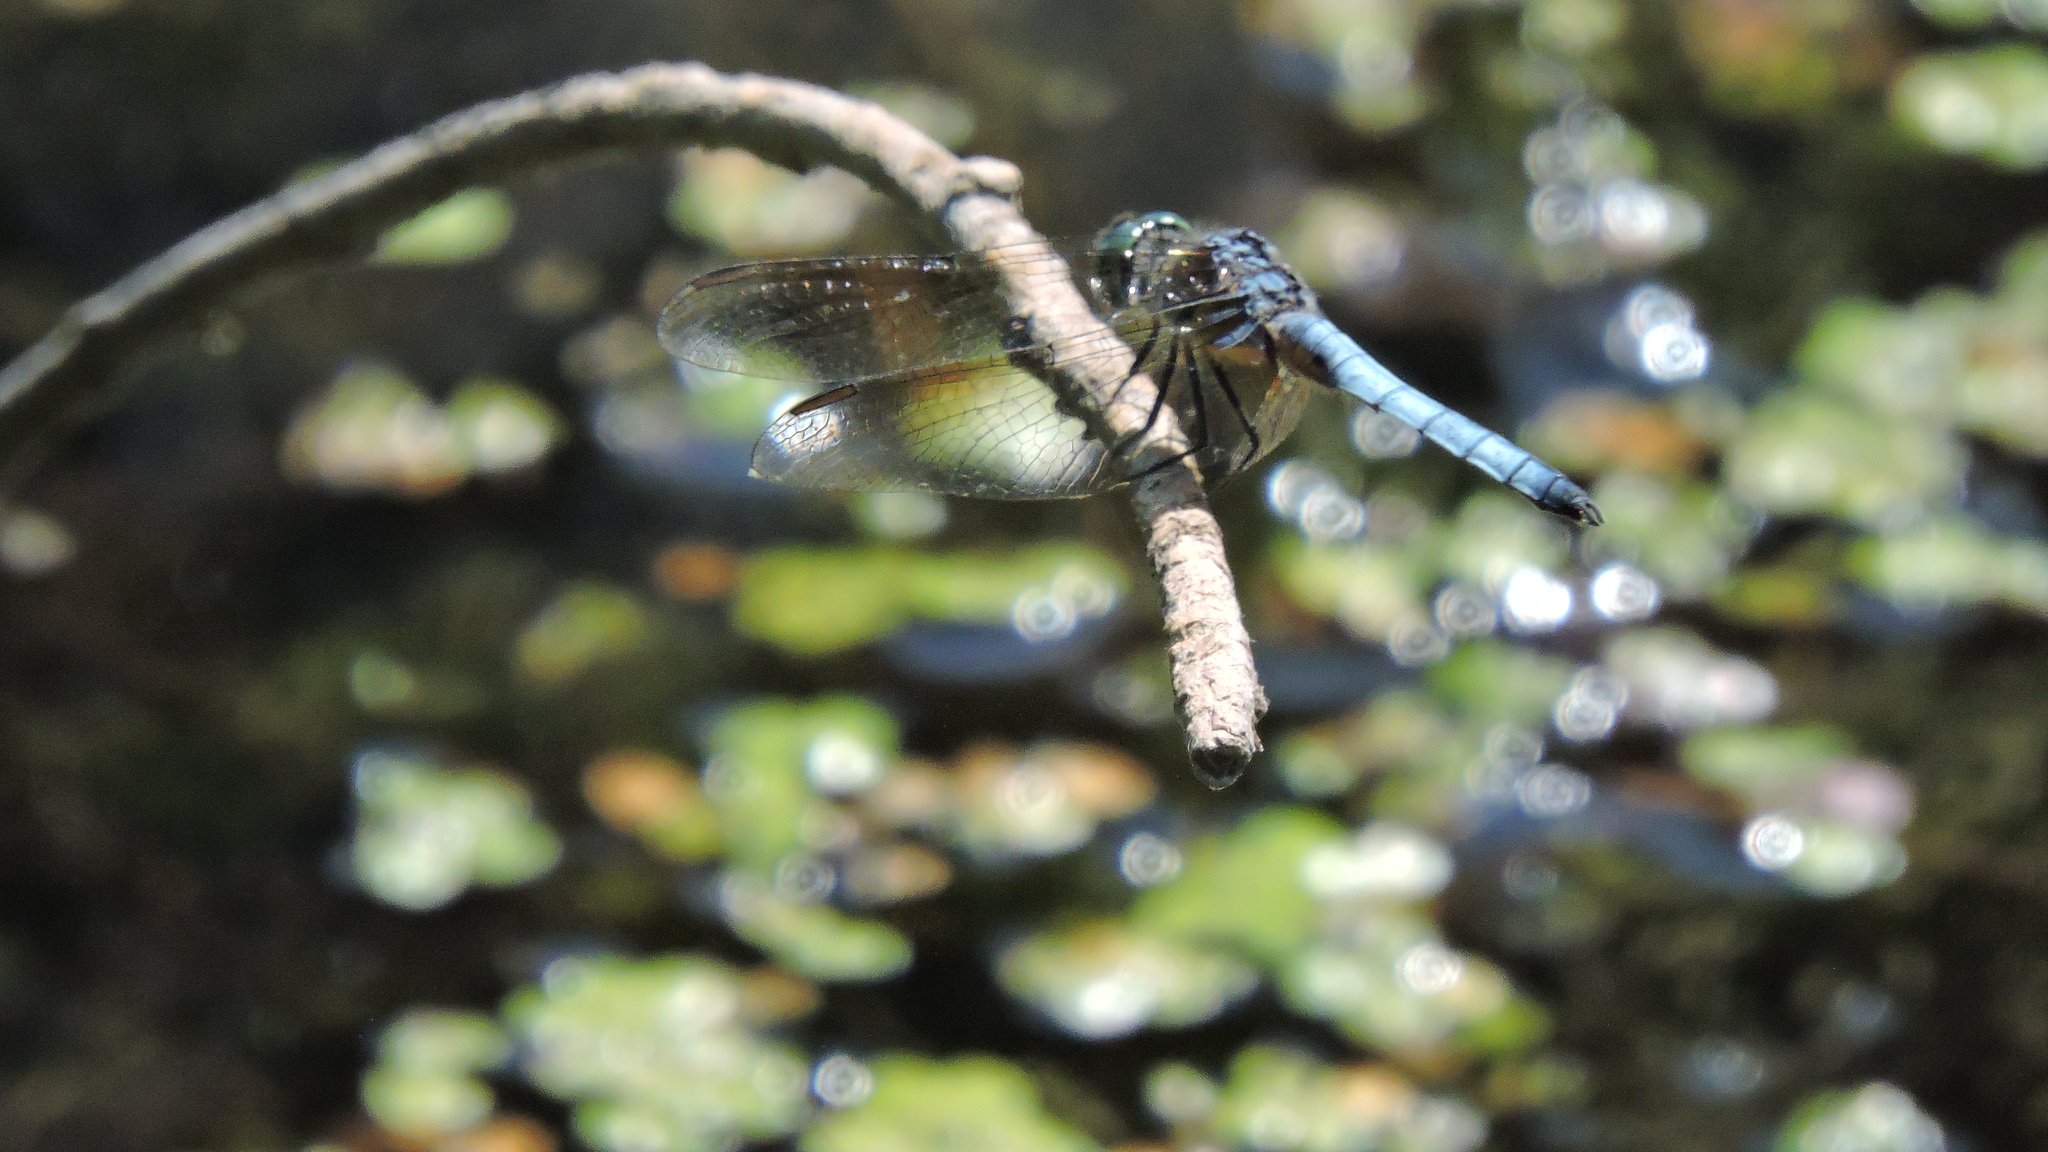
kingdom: Animalia
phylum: Arthropoda
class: Insecta
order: Odonata
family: Libellulidae
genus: Pachydiplax
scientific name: Pachydiplax longipennis
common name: Blue dasher
